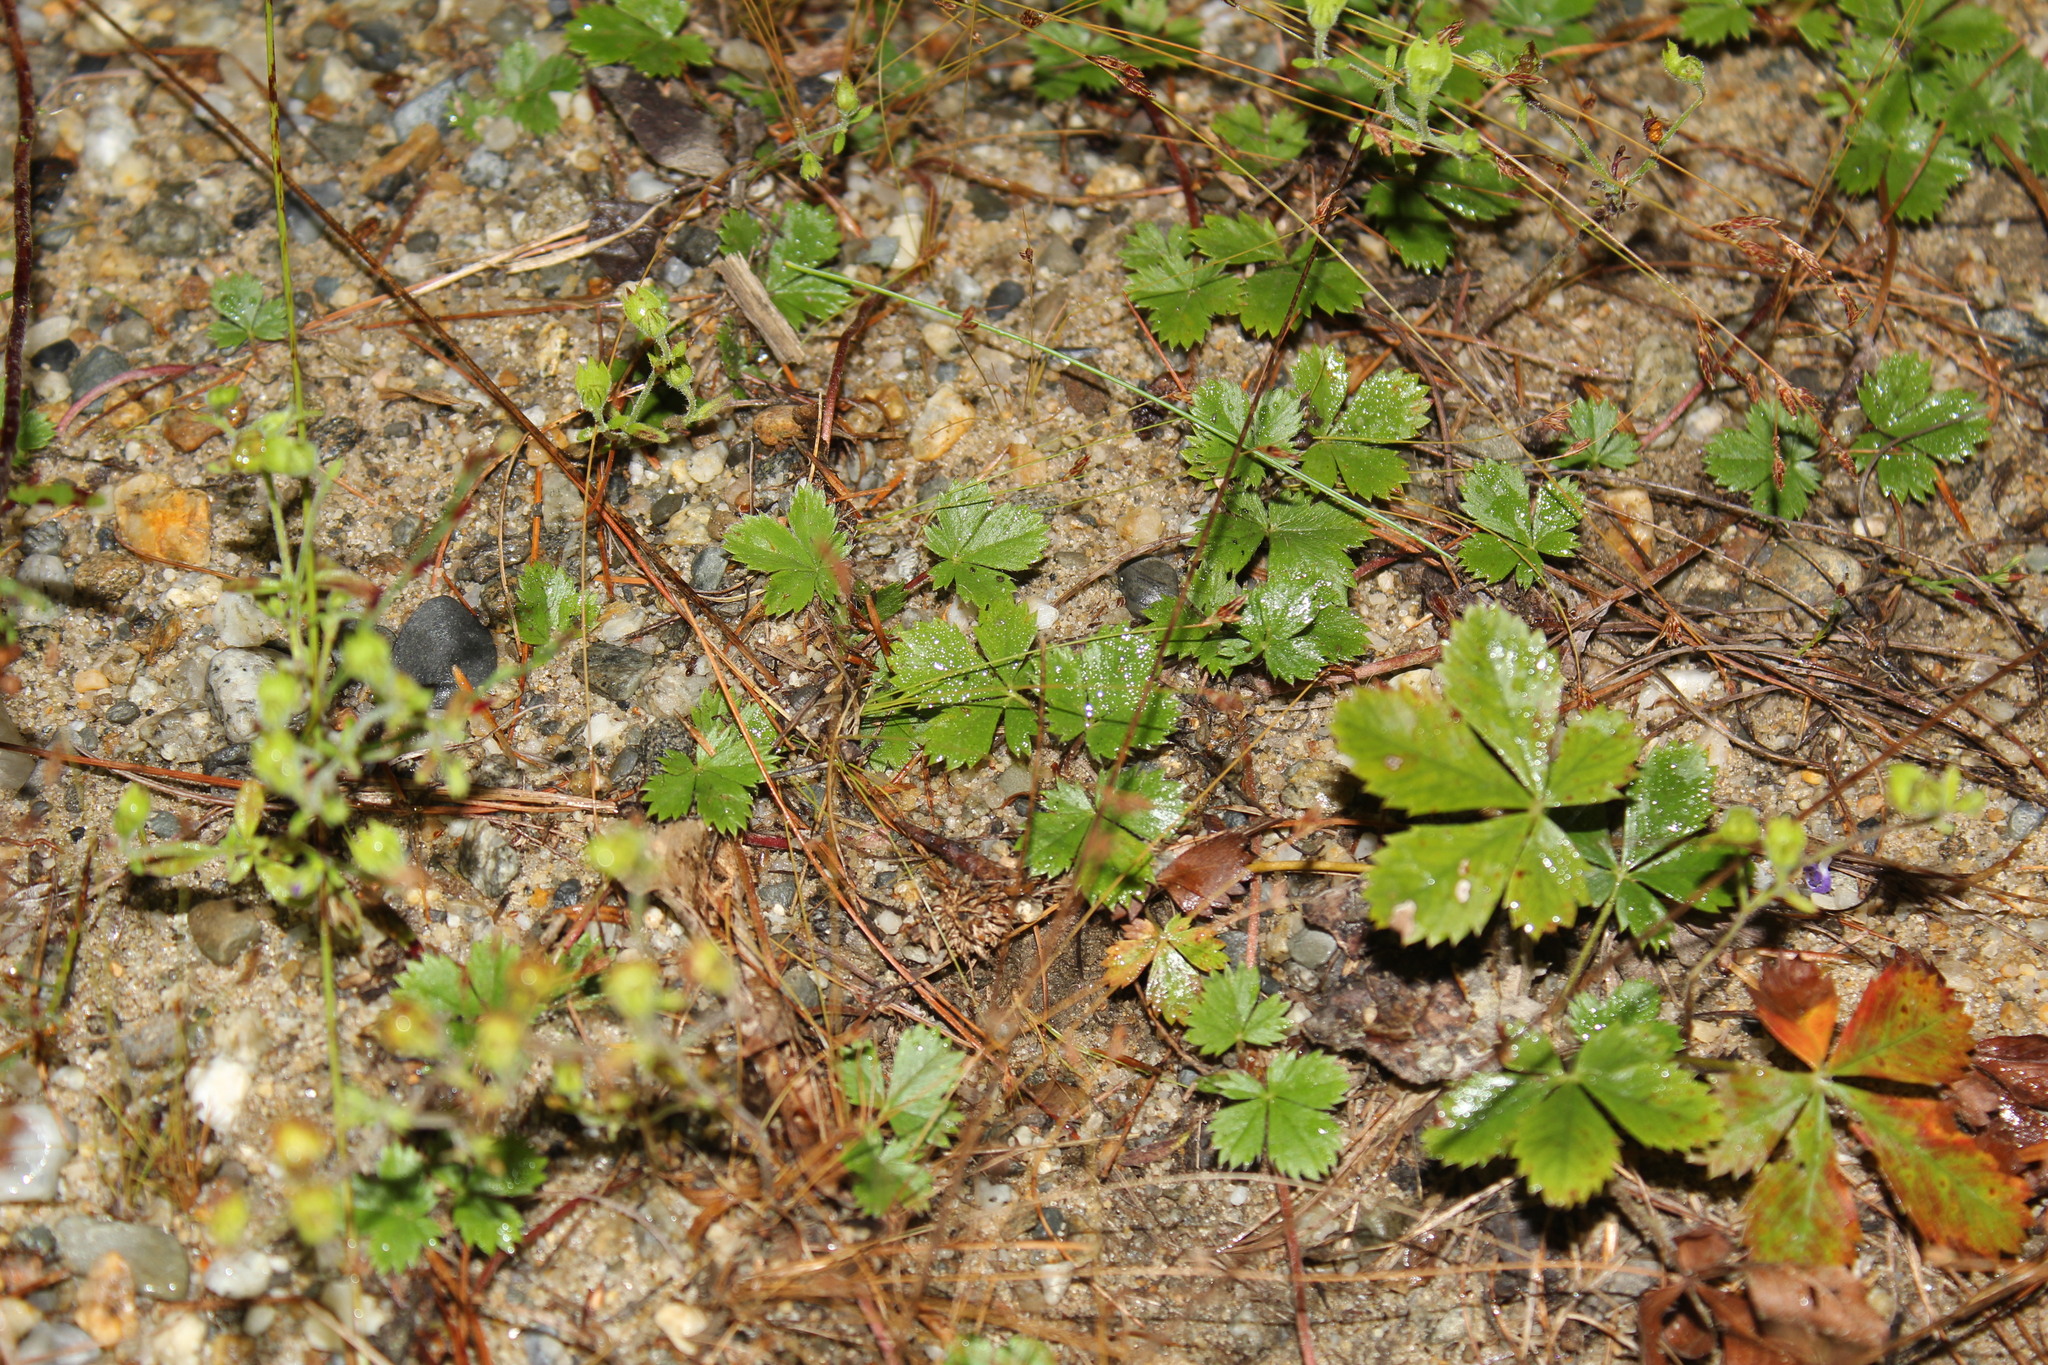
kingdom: Plantae
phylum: Tracheophyta
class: Magnoliopsida
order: Rosales
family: Rosaceae
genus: Potentilla
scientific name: Potentilla canadensis
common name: Canada cinquefoil
